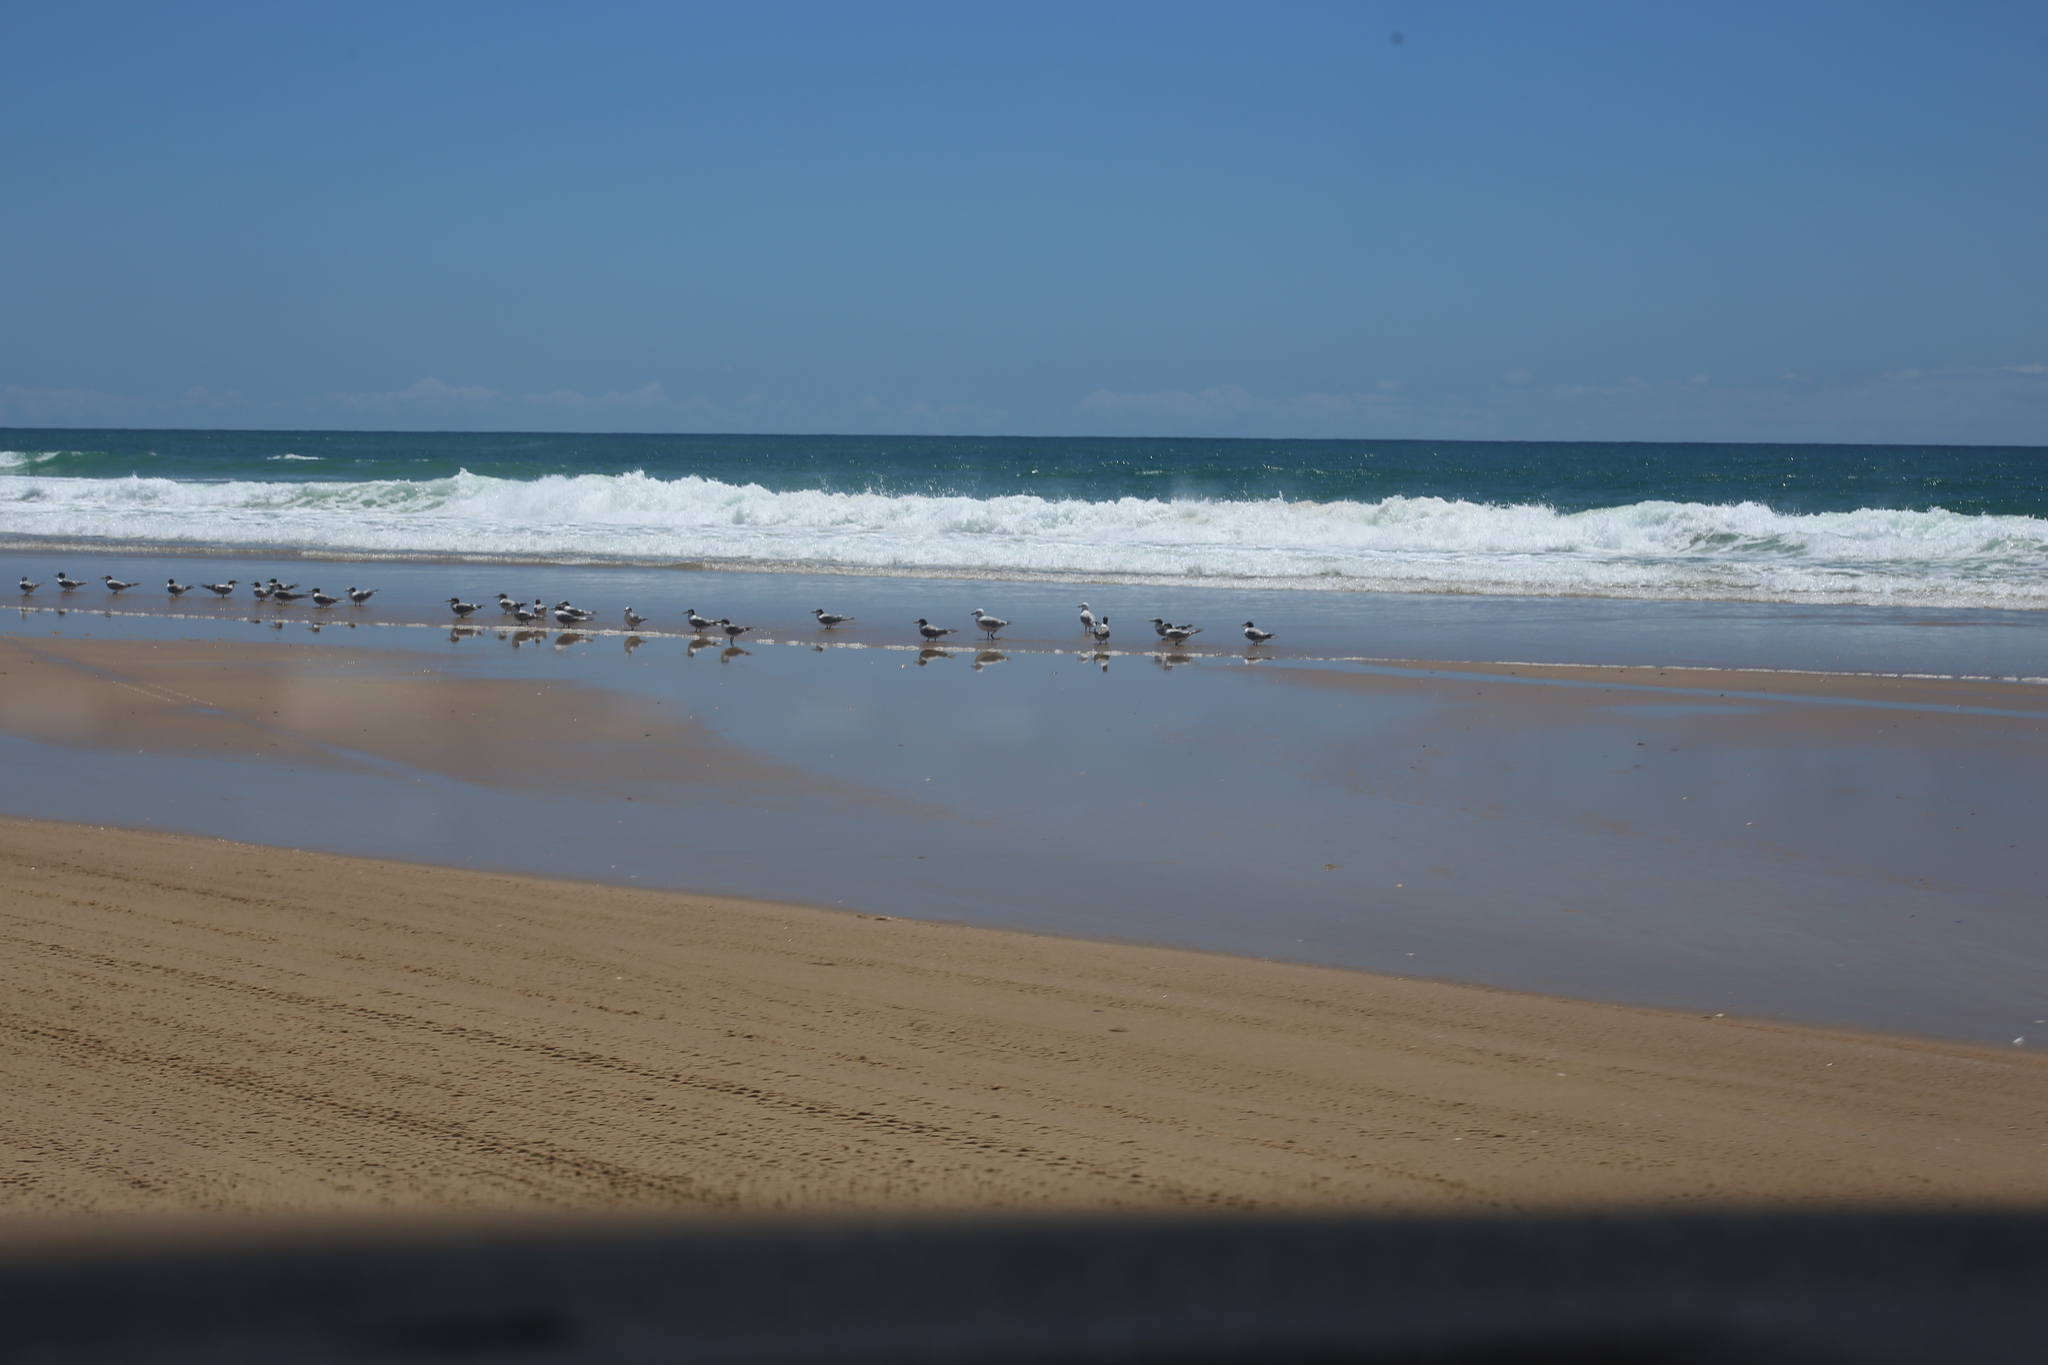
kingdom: Animalia
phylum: Chordata
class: Aves
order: Charadriiformes
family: Laridae
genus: Chroicocephalus
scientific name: Chroicocephalus novaehollandiae
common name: Silver gull
